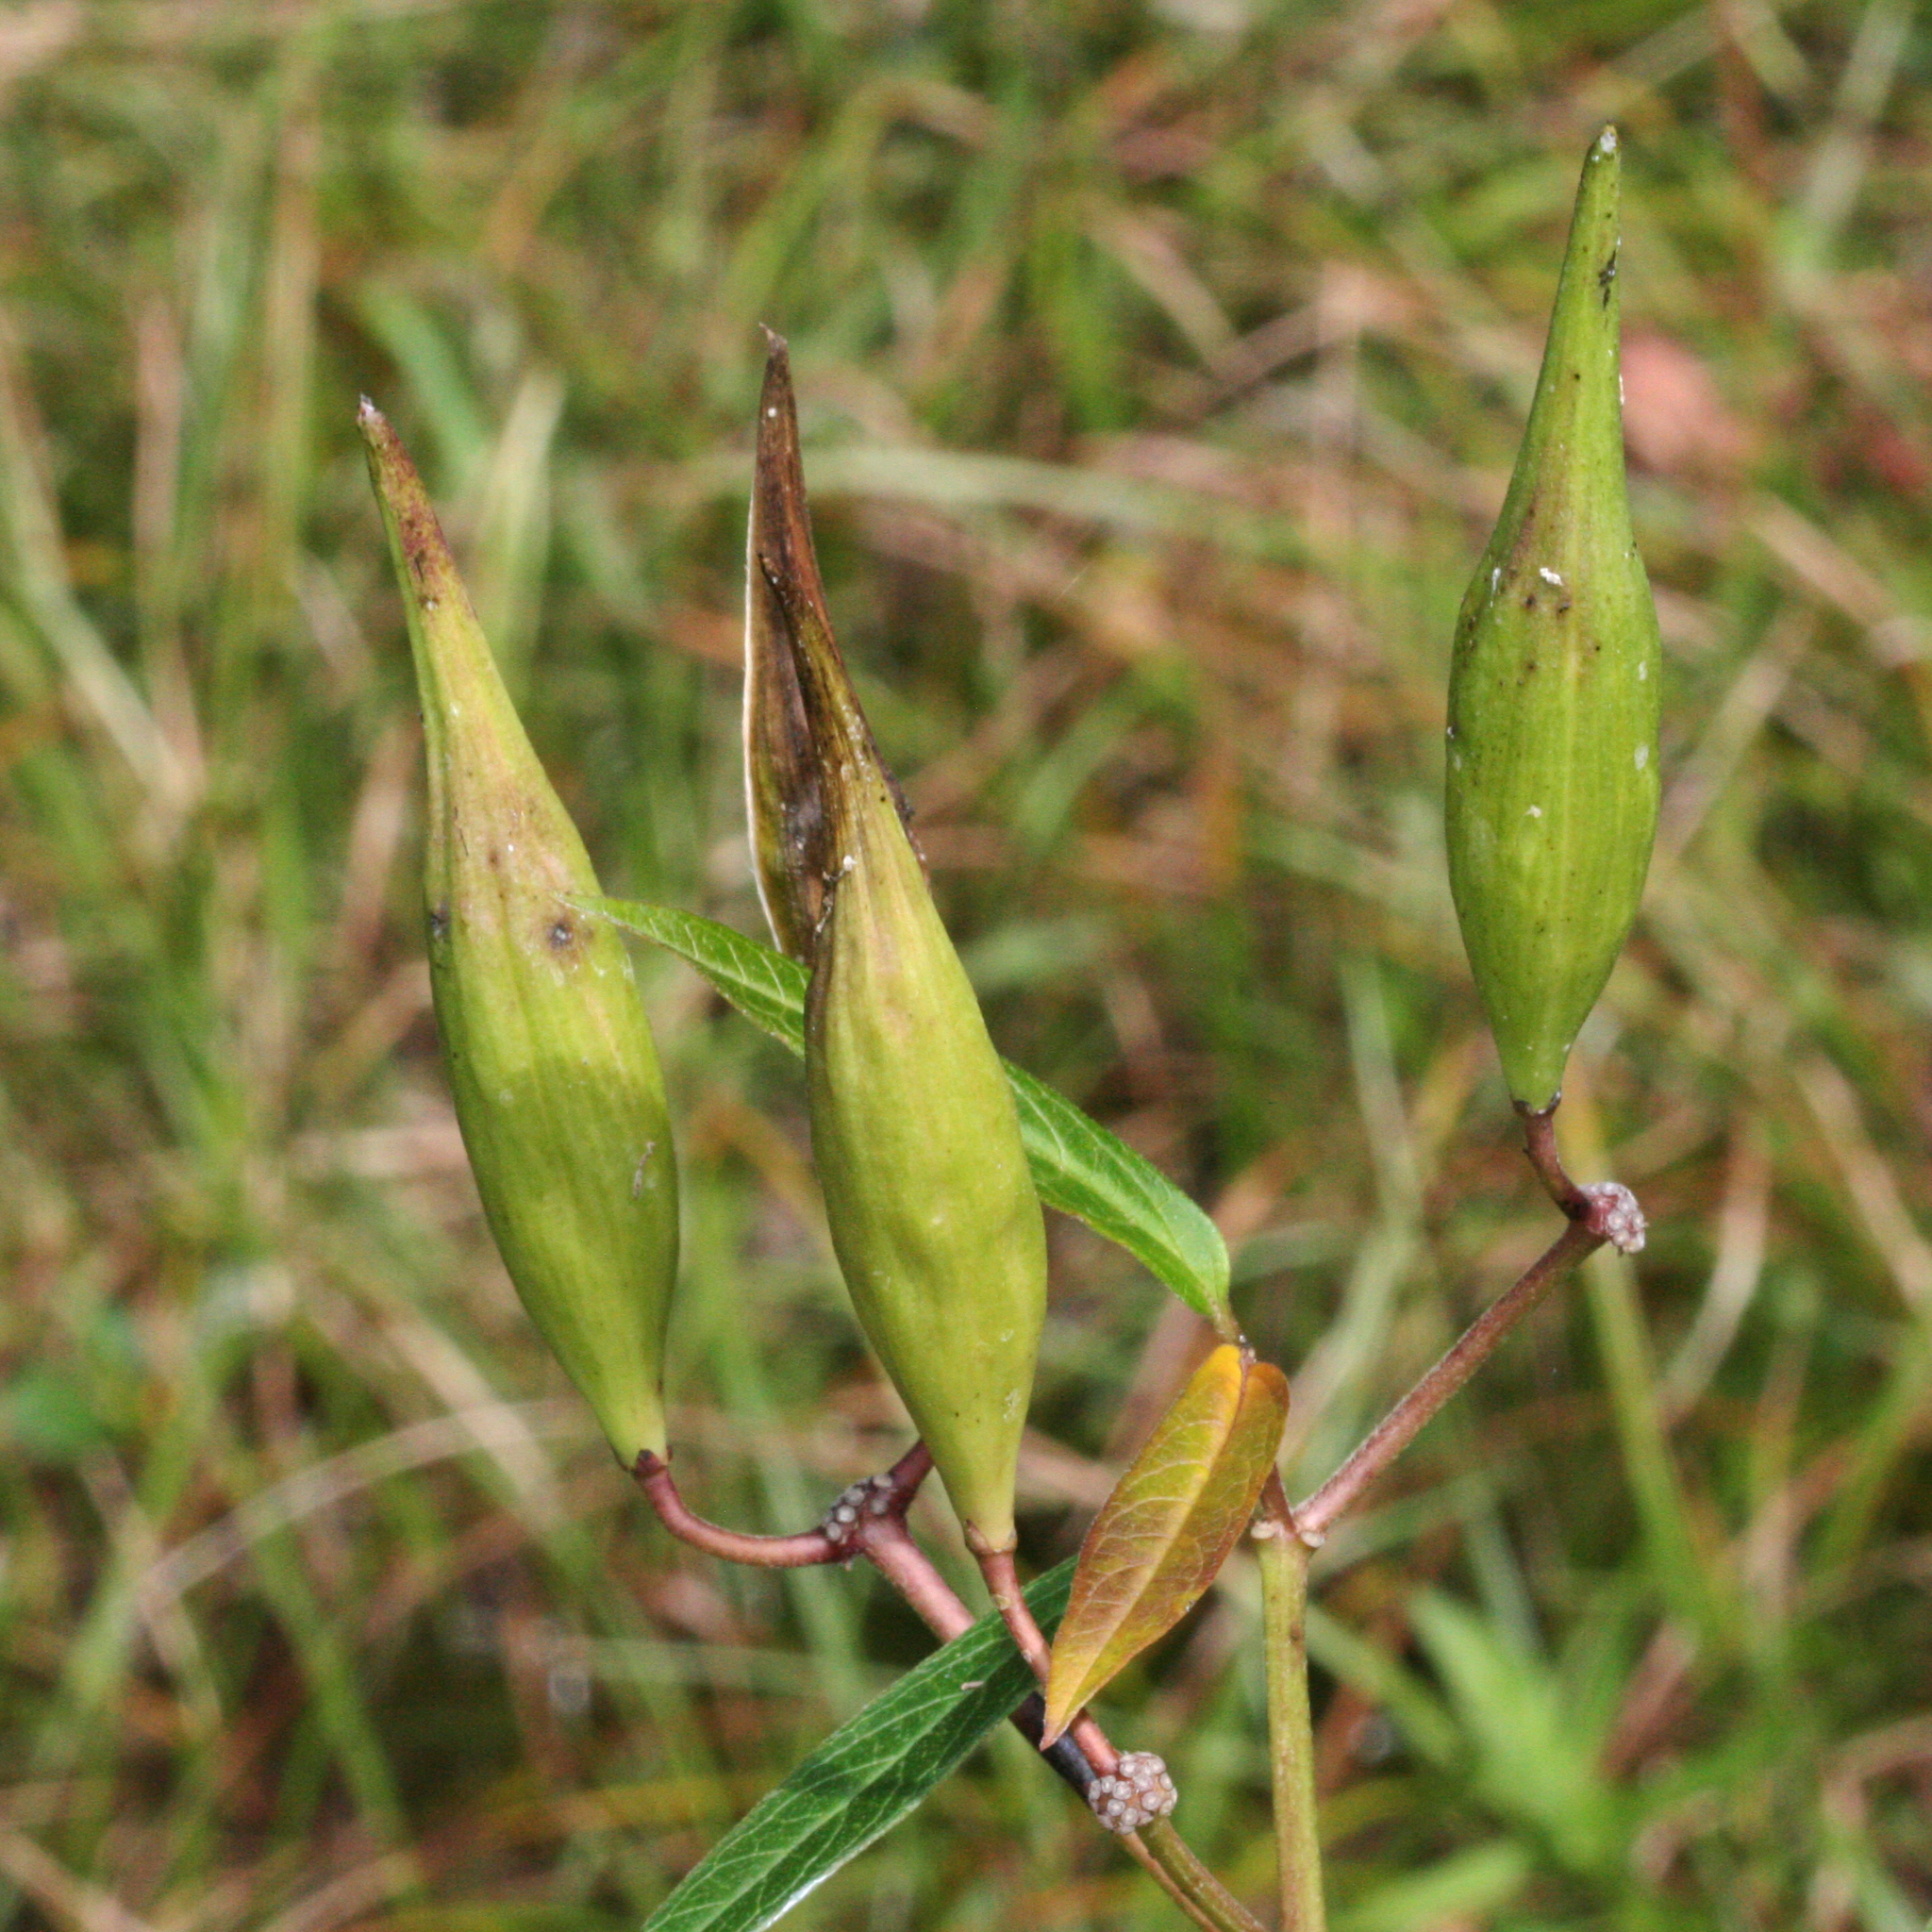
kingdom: Plantae
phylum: Tracheophyta
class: Magnoliopsida
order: Gentianales
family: Apocynaceae
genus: Asclepias
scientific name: Asclepias incarnata
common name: Swamp milkweed
